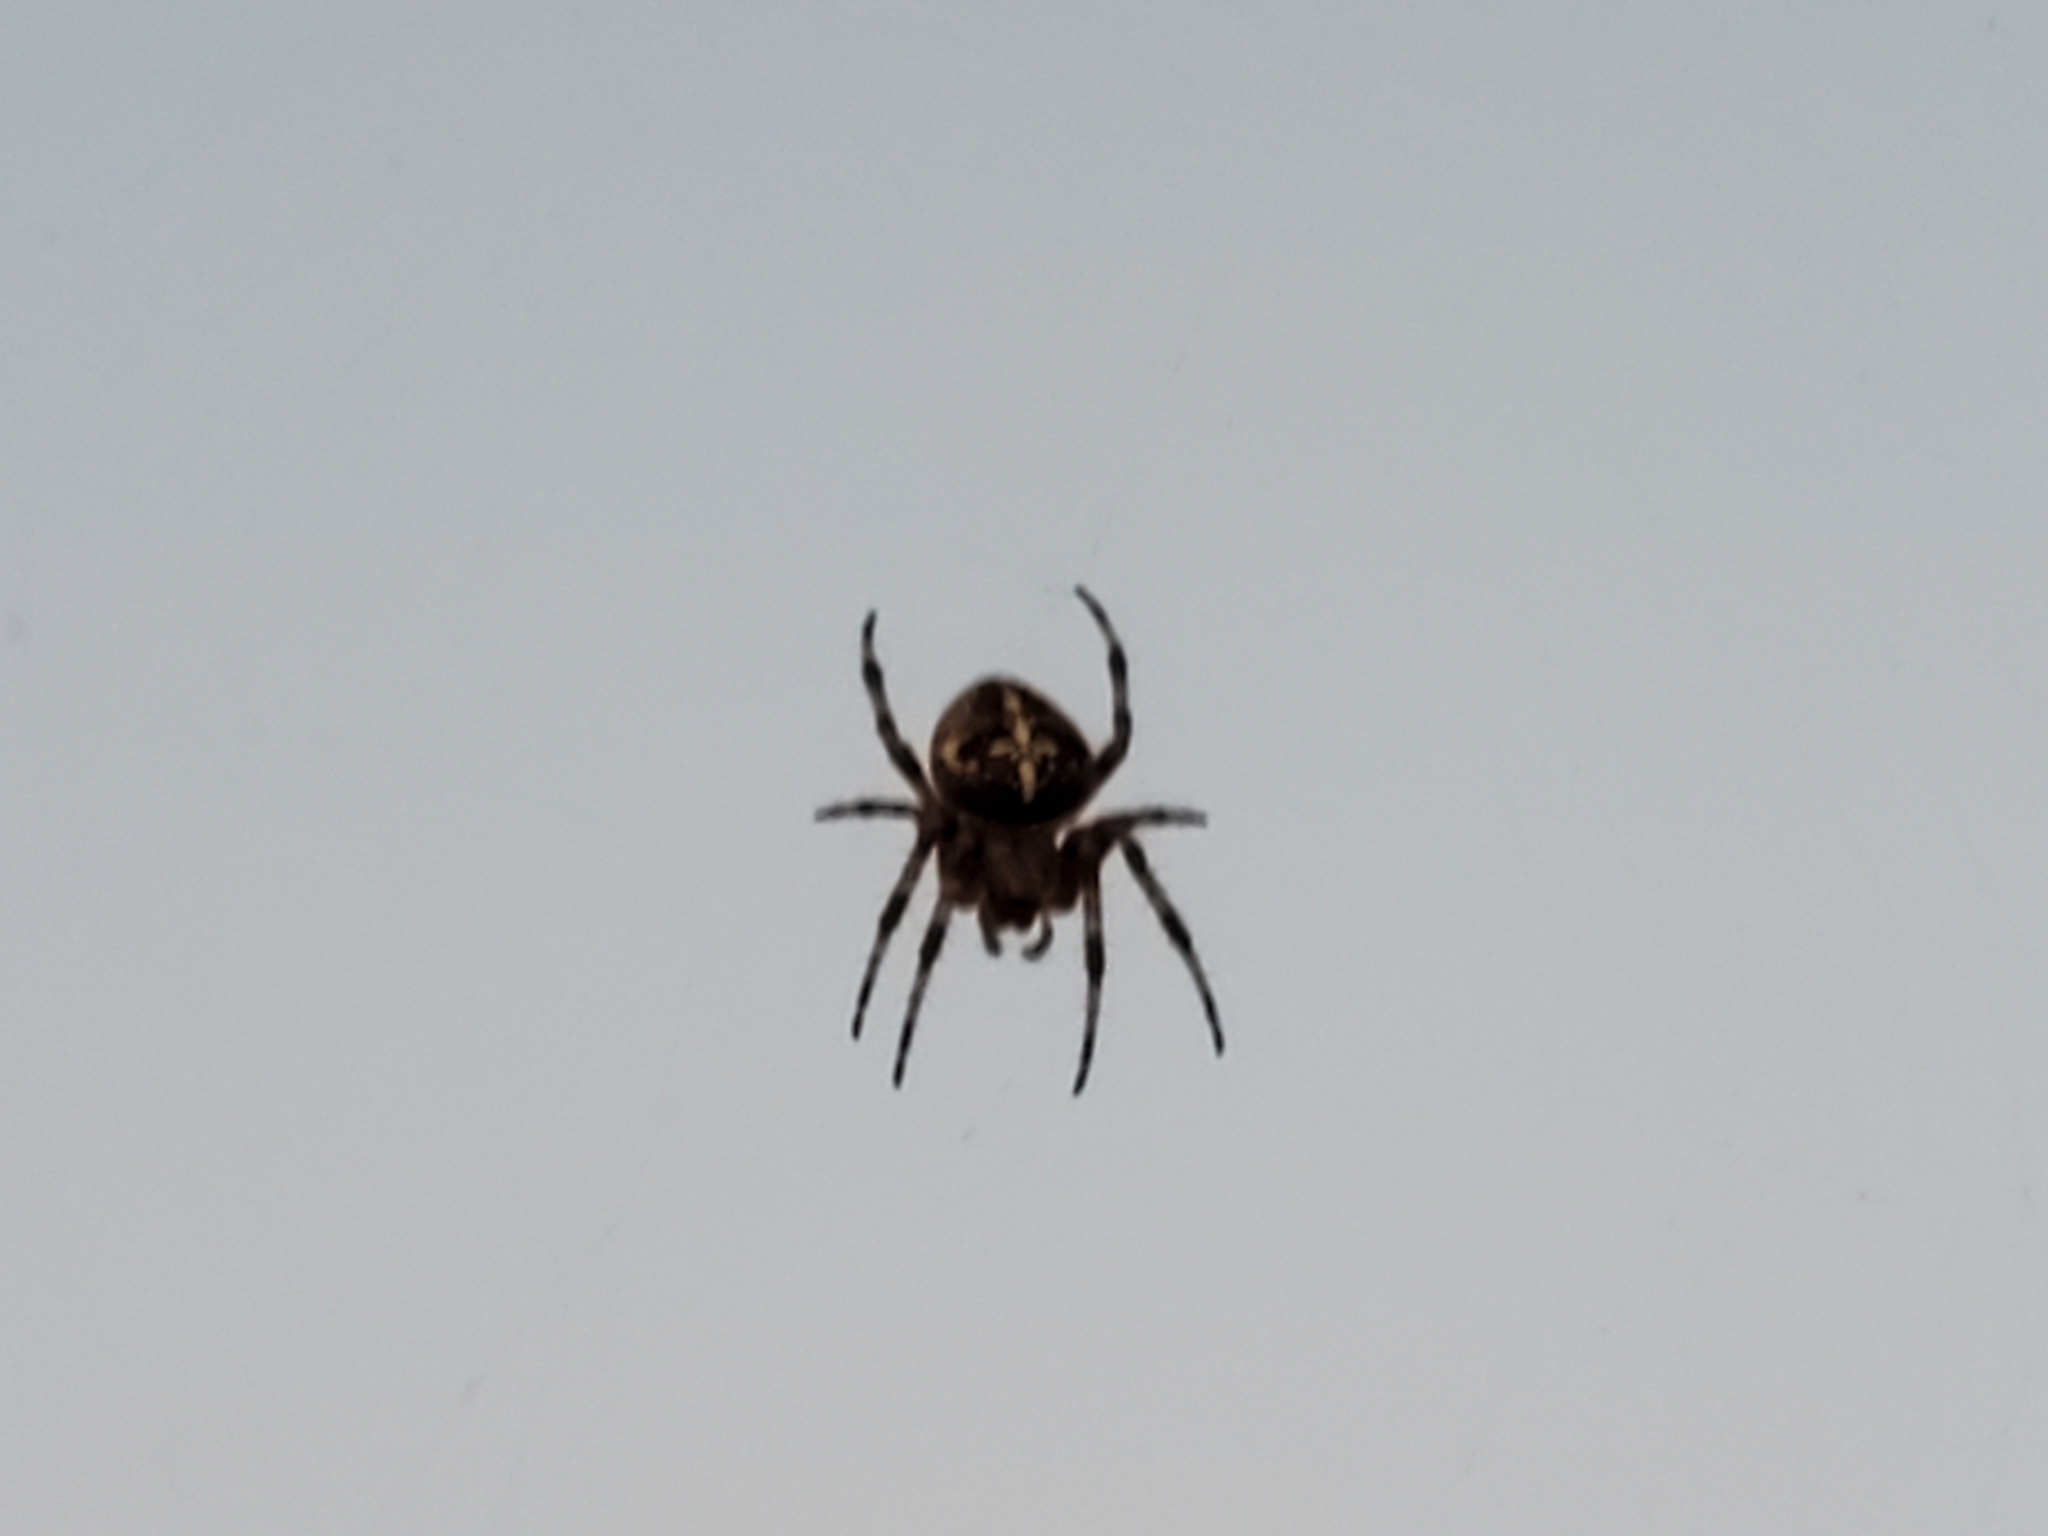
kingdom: Animalia
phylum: Arthropoda
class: Arachnida
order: Araneae
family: Araneidae
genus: Araneus
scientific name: Araneus diadematus
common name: Cross orbweaver
